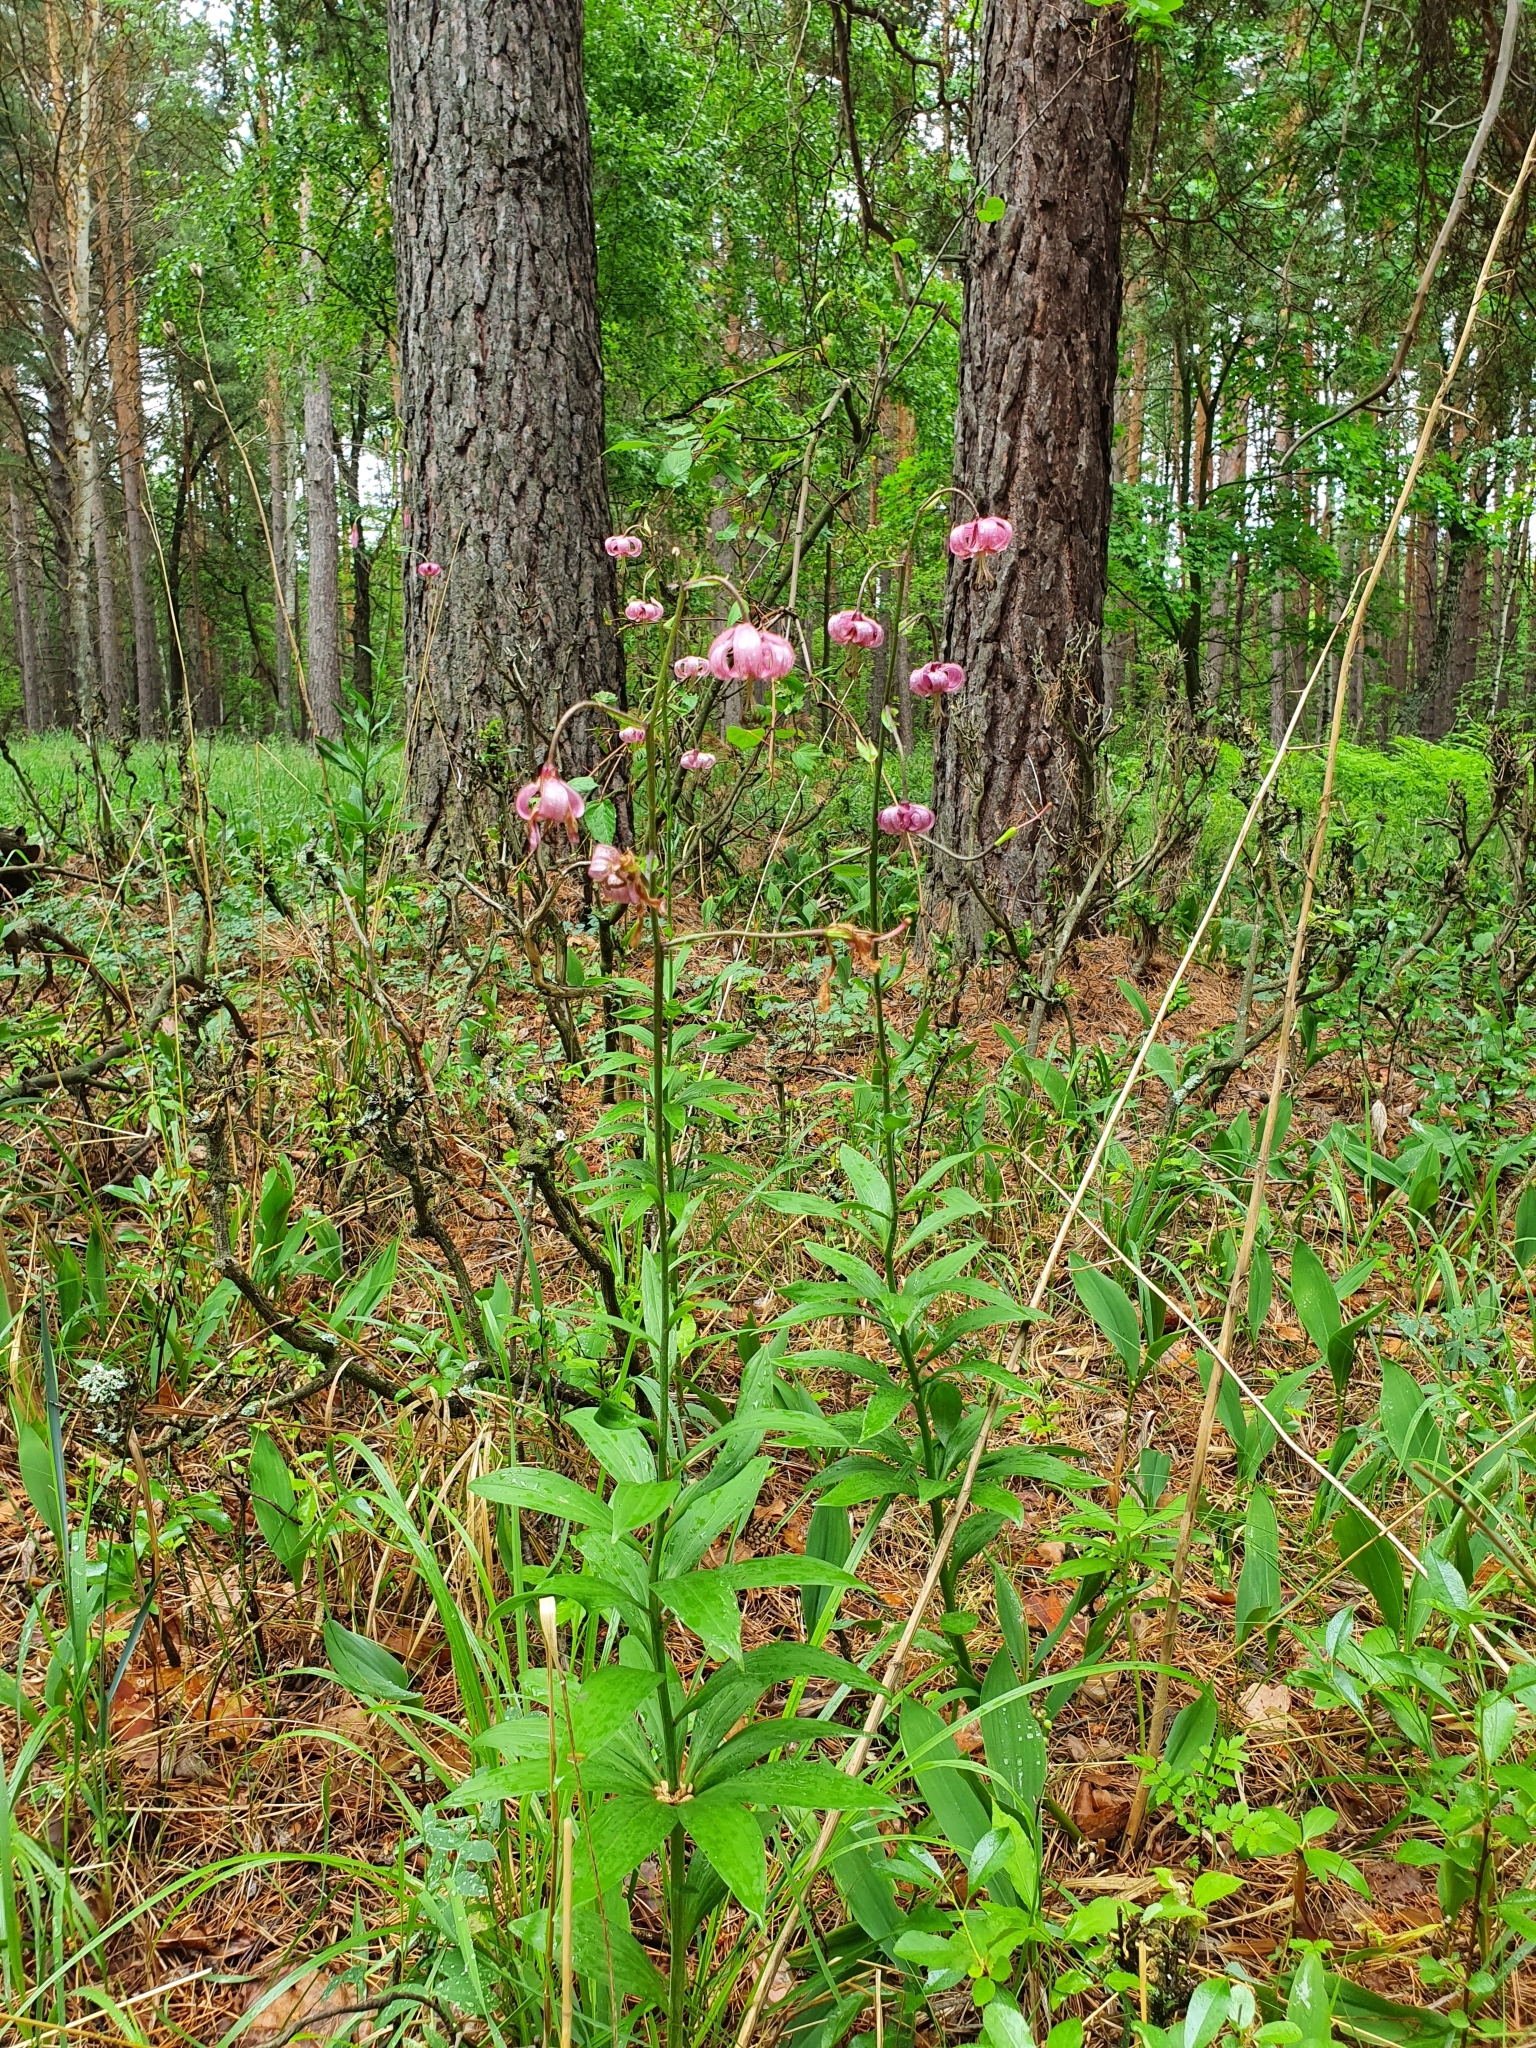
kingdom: Plantae
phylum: Tracheophyta
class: Liliopsida
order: Liliales
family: Liliaceae
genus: Lilium
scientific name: Lilium martagon
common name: Martagon lily
